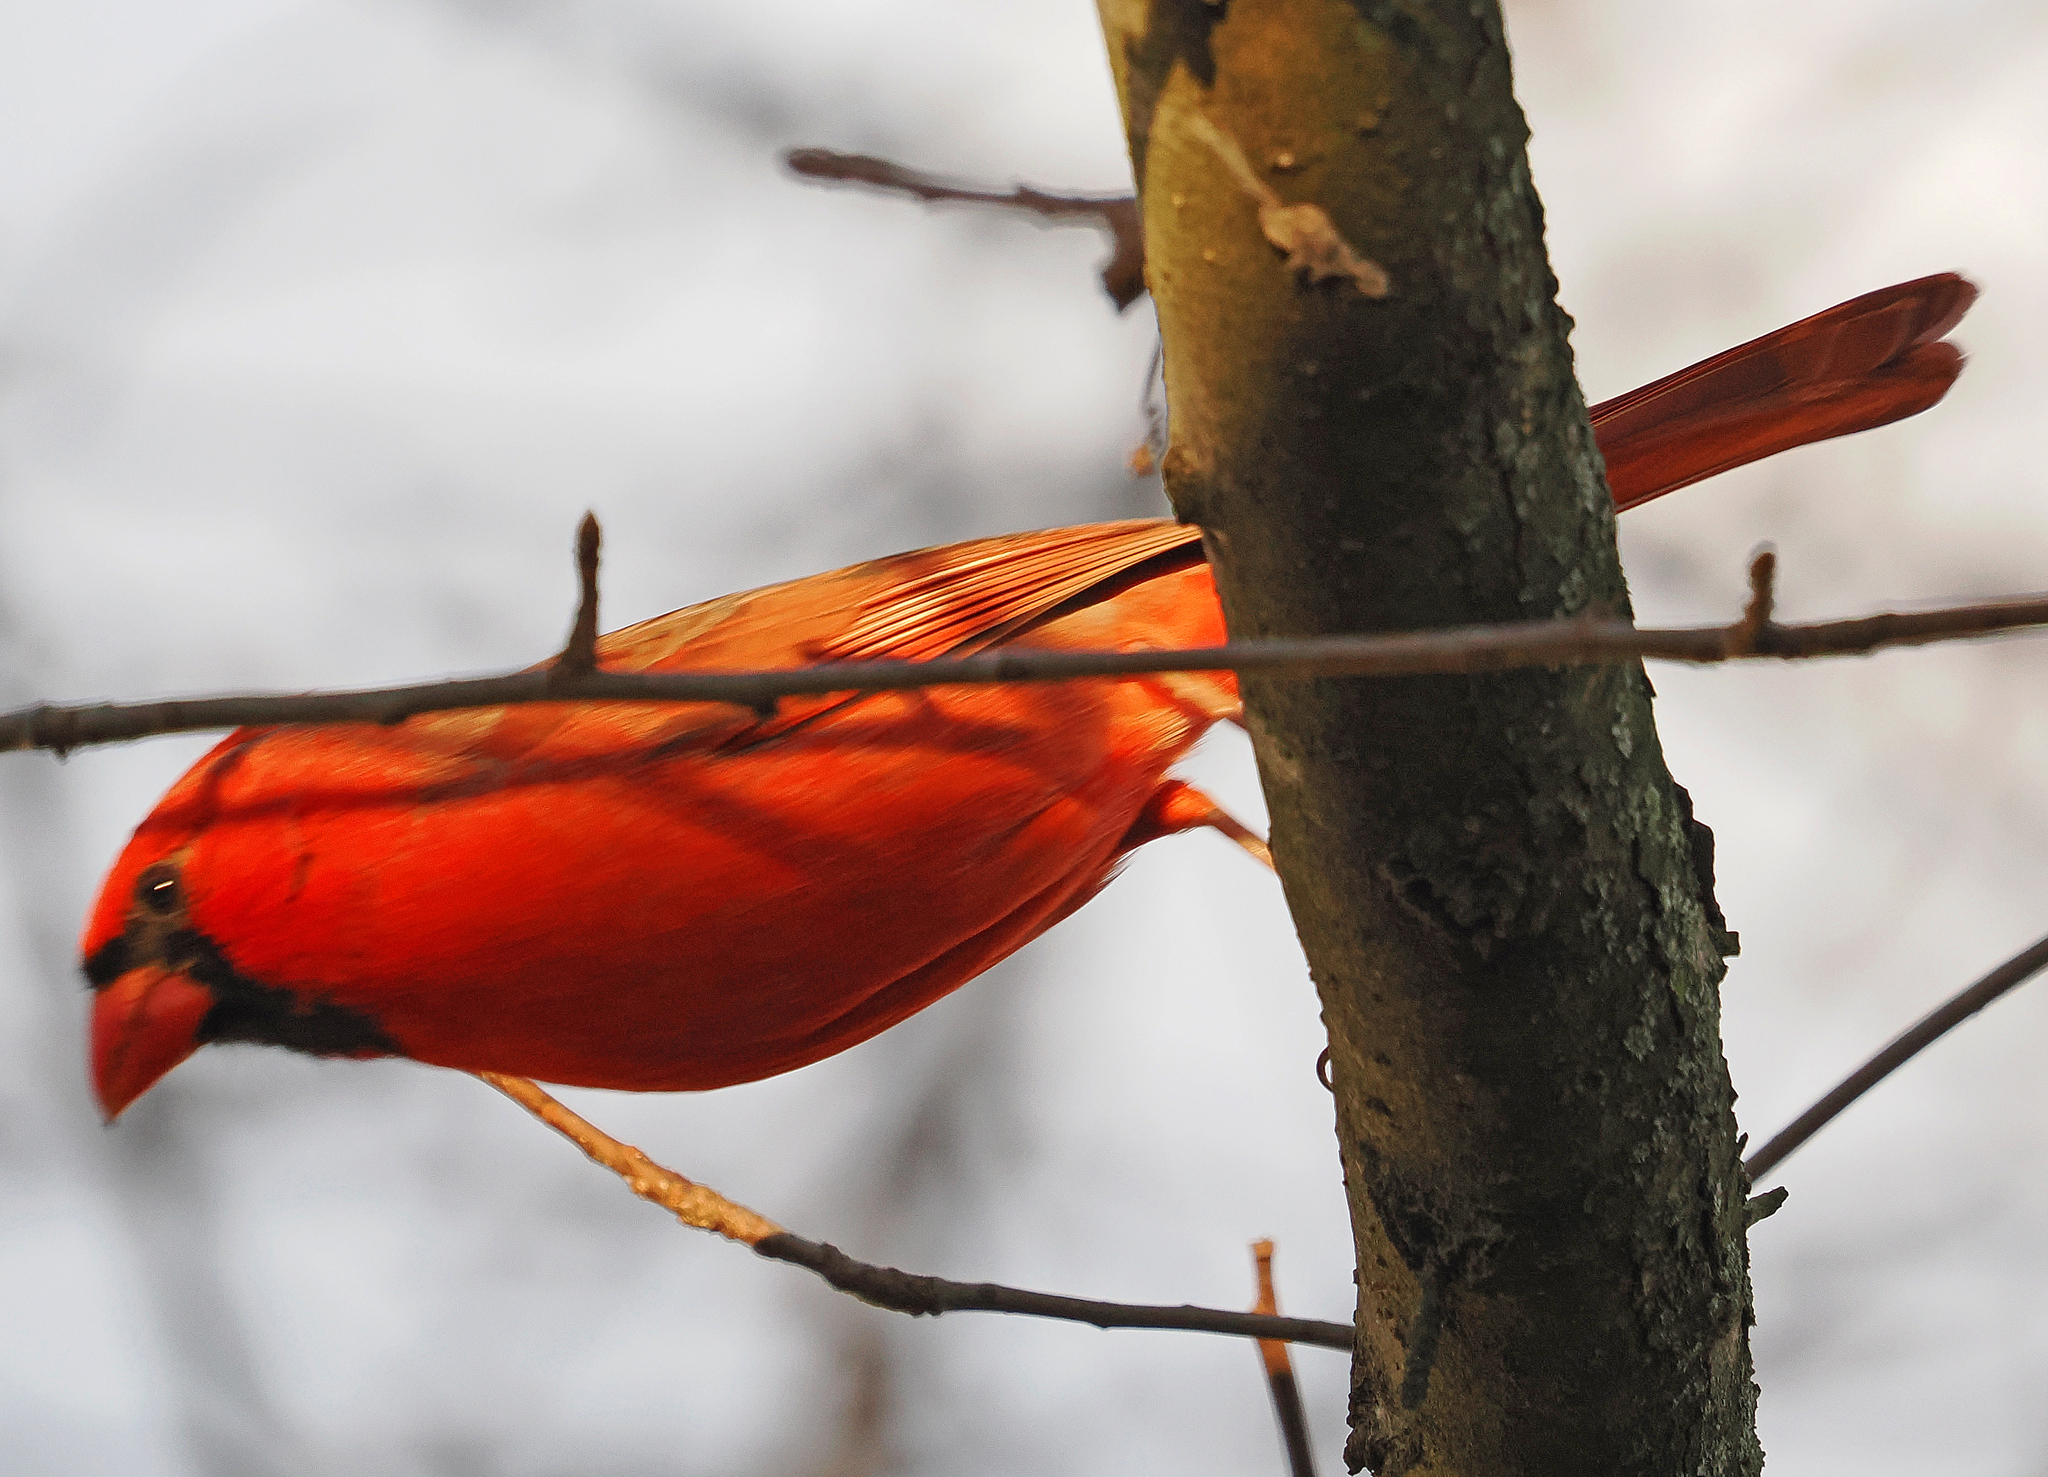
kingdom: Animalia
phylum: Chordata
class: Aves
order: Passeriformes
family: Cardinalidae
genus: Cardinalis
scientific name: Cardinalis cardinalis
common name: Northern cardinal
